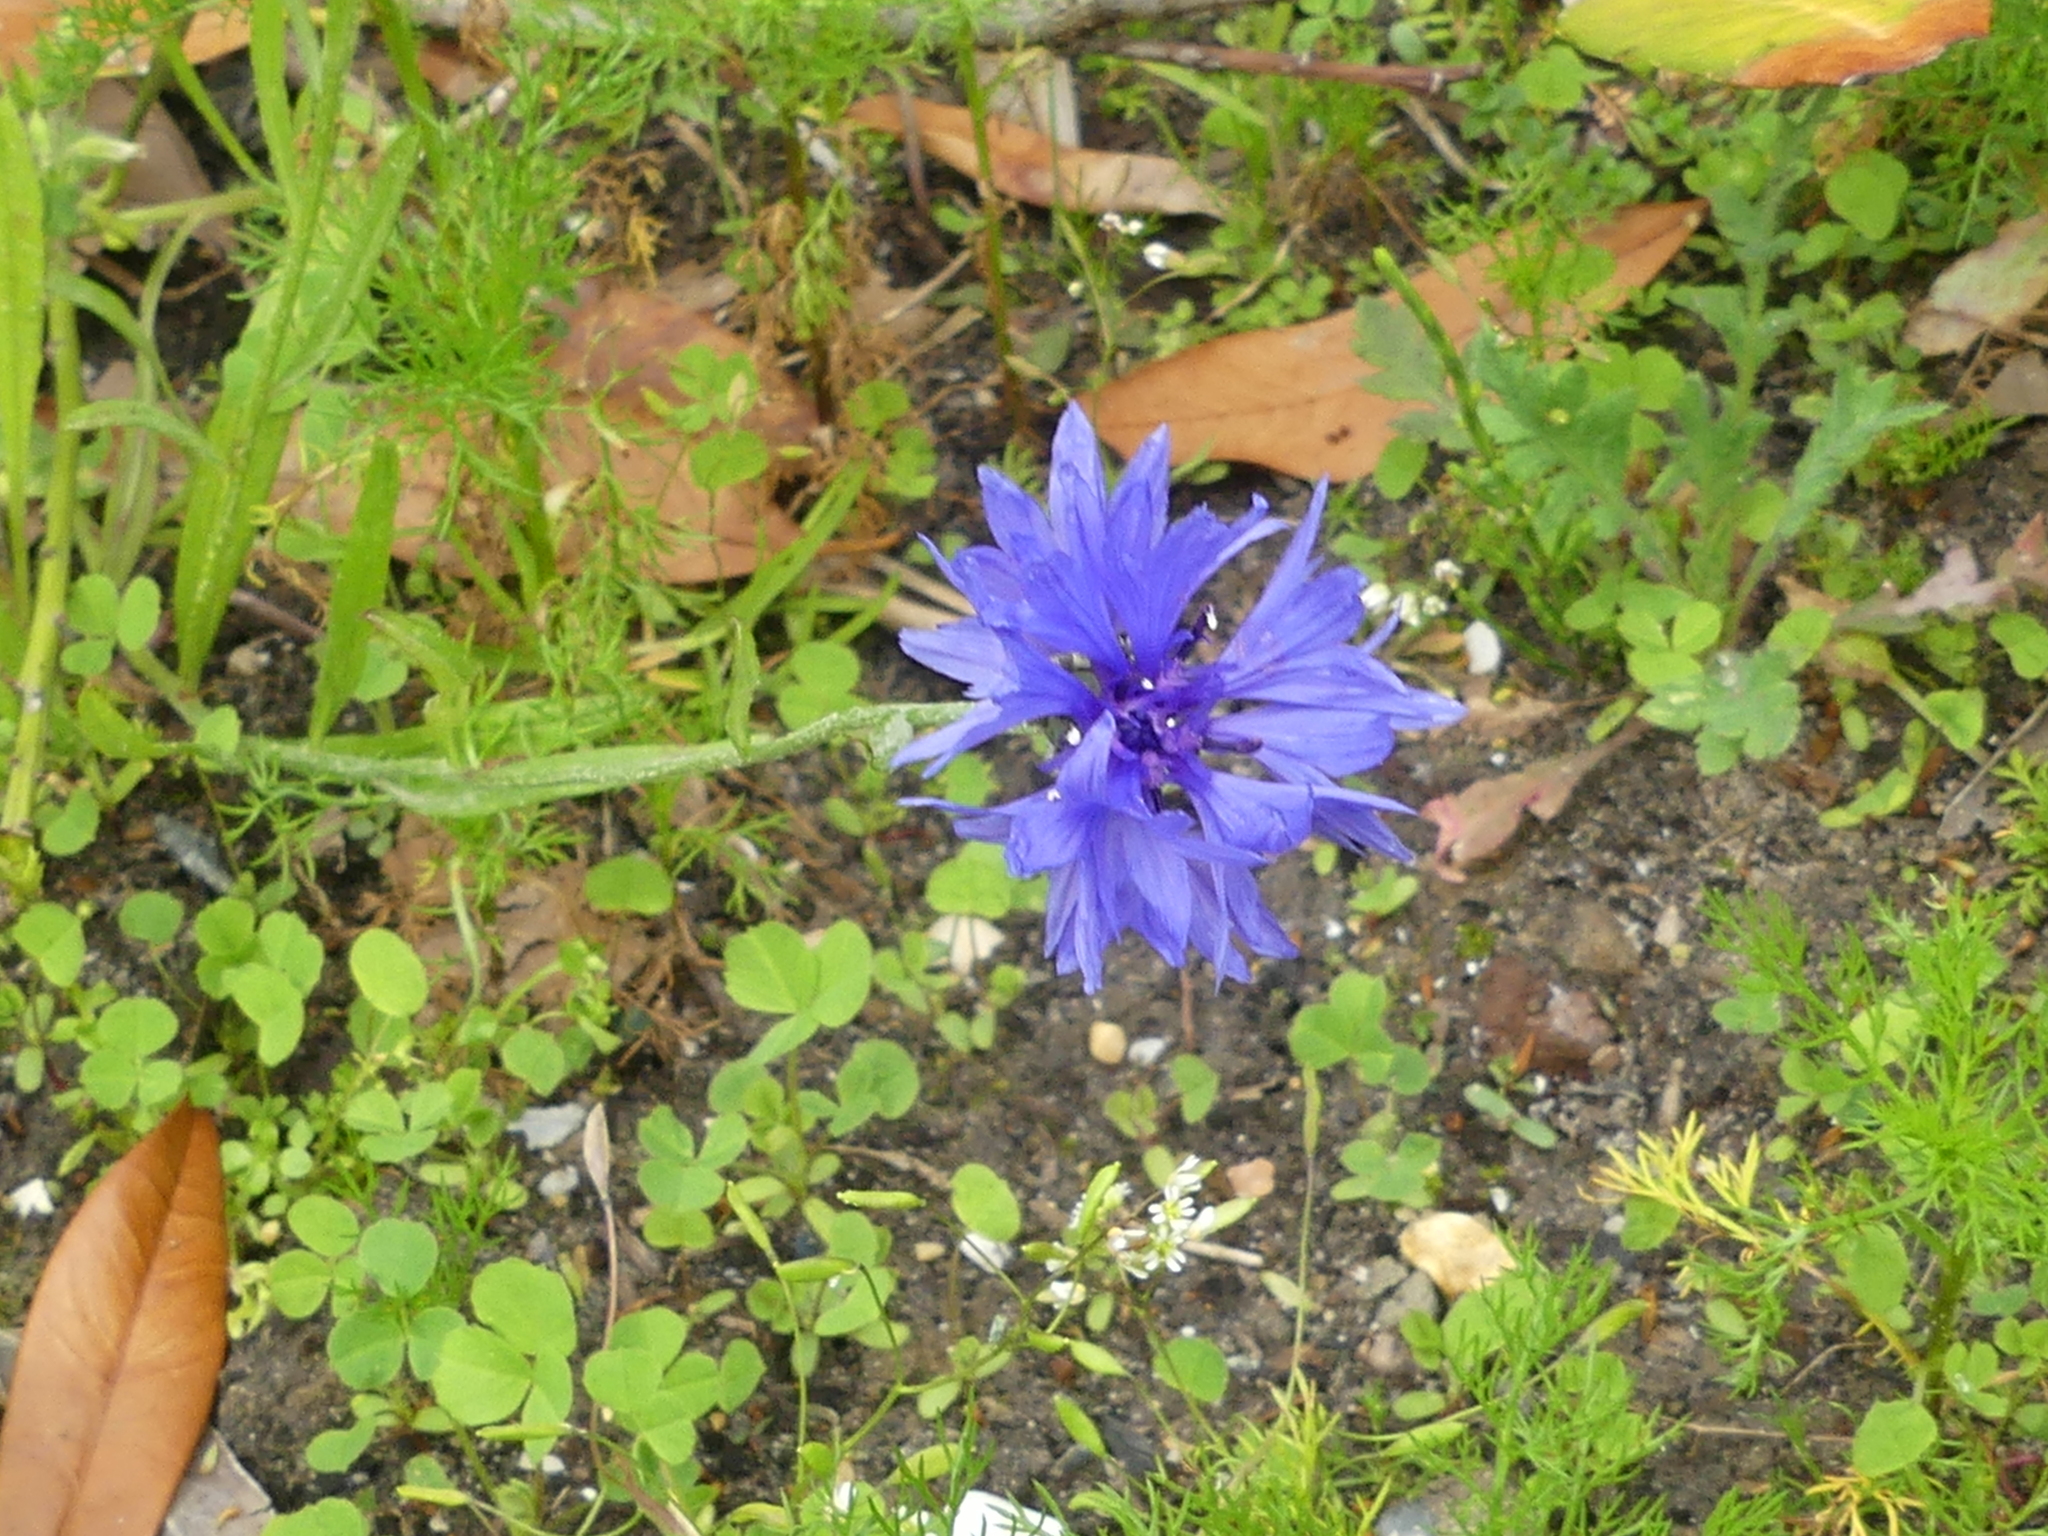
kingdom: Plantae
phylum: Tracheophyta
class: Magnoliopsida
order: Asterales
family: Asteraceae
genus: Centaurea
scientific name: Centaurea cyanus
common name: Cornflower
